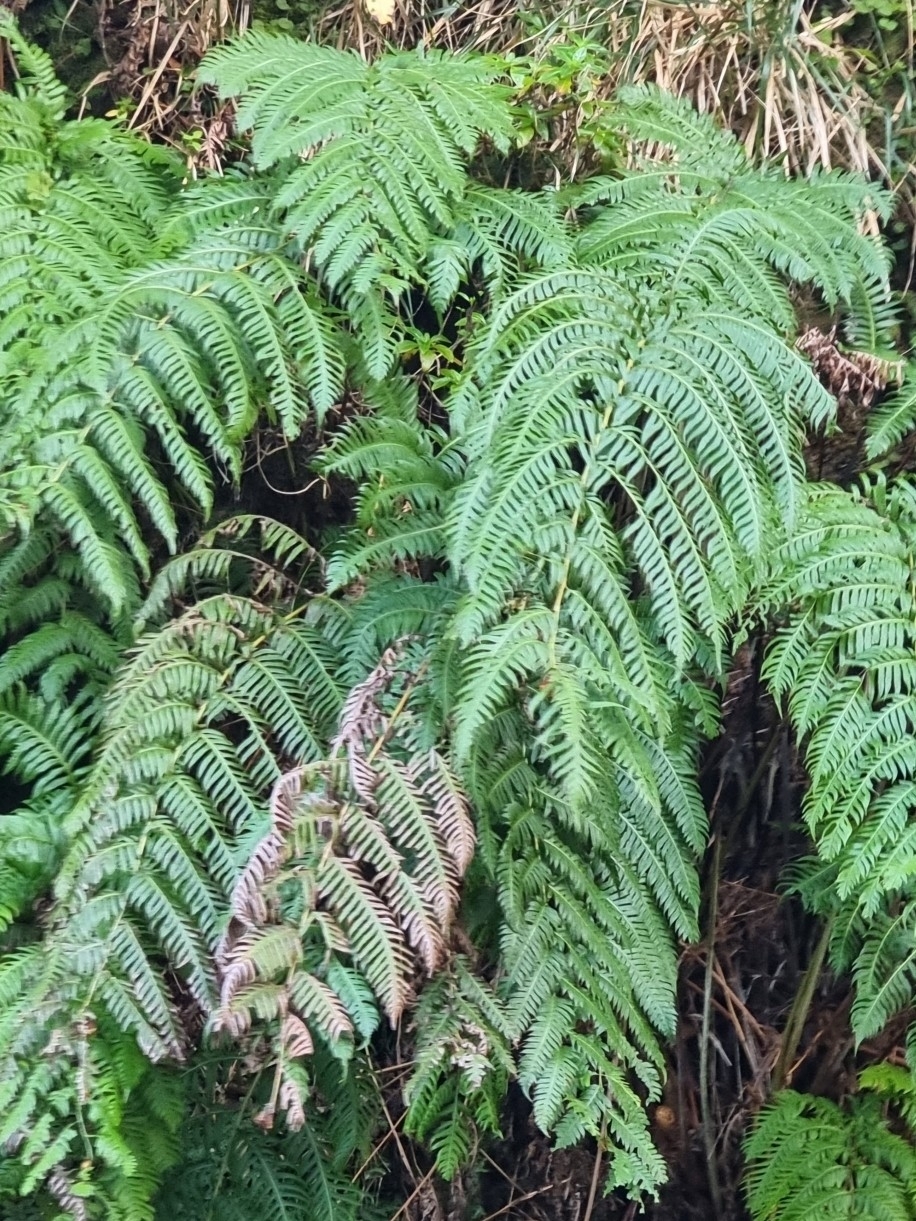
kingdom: Plantae
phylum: Tracheophyta
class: Polypodiopsida
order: Polypodiales
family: Blechnaceae
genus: Woodwardia
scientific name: Woodwardia radicans
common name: Rooting chainfern
